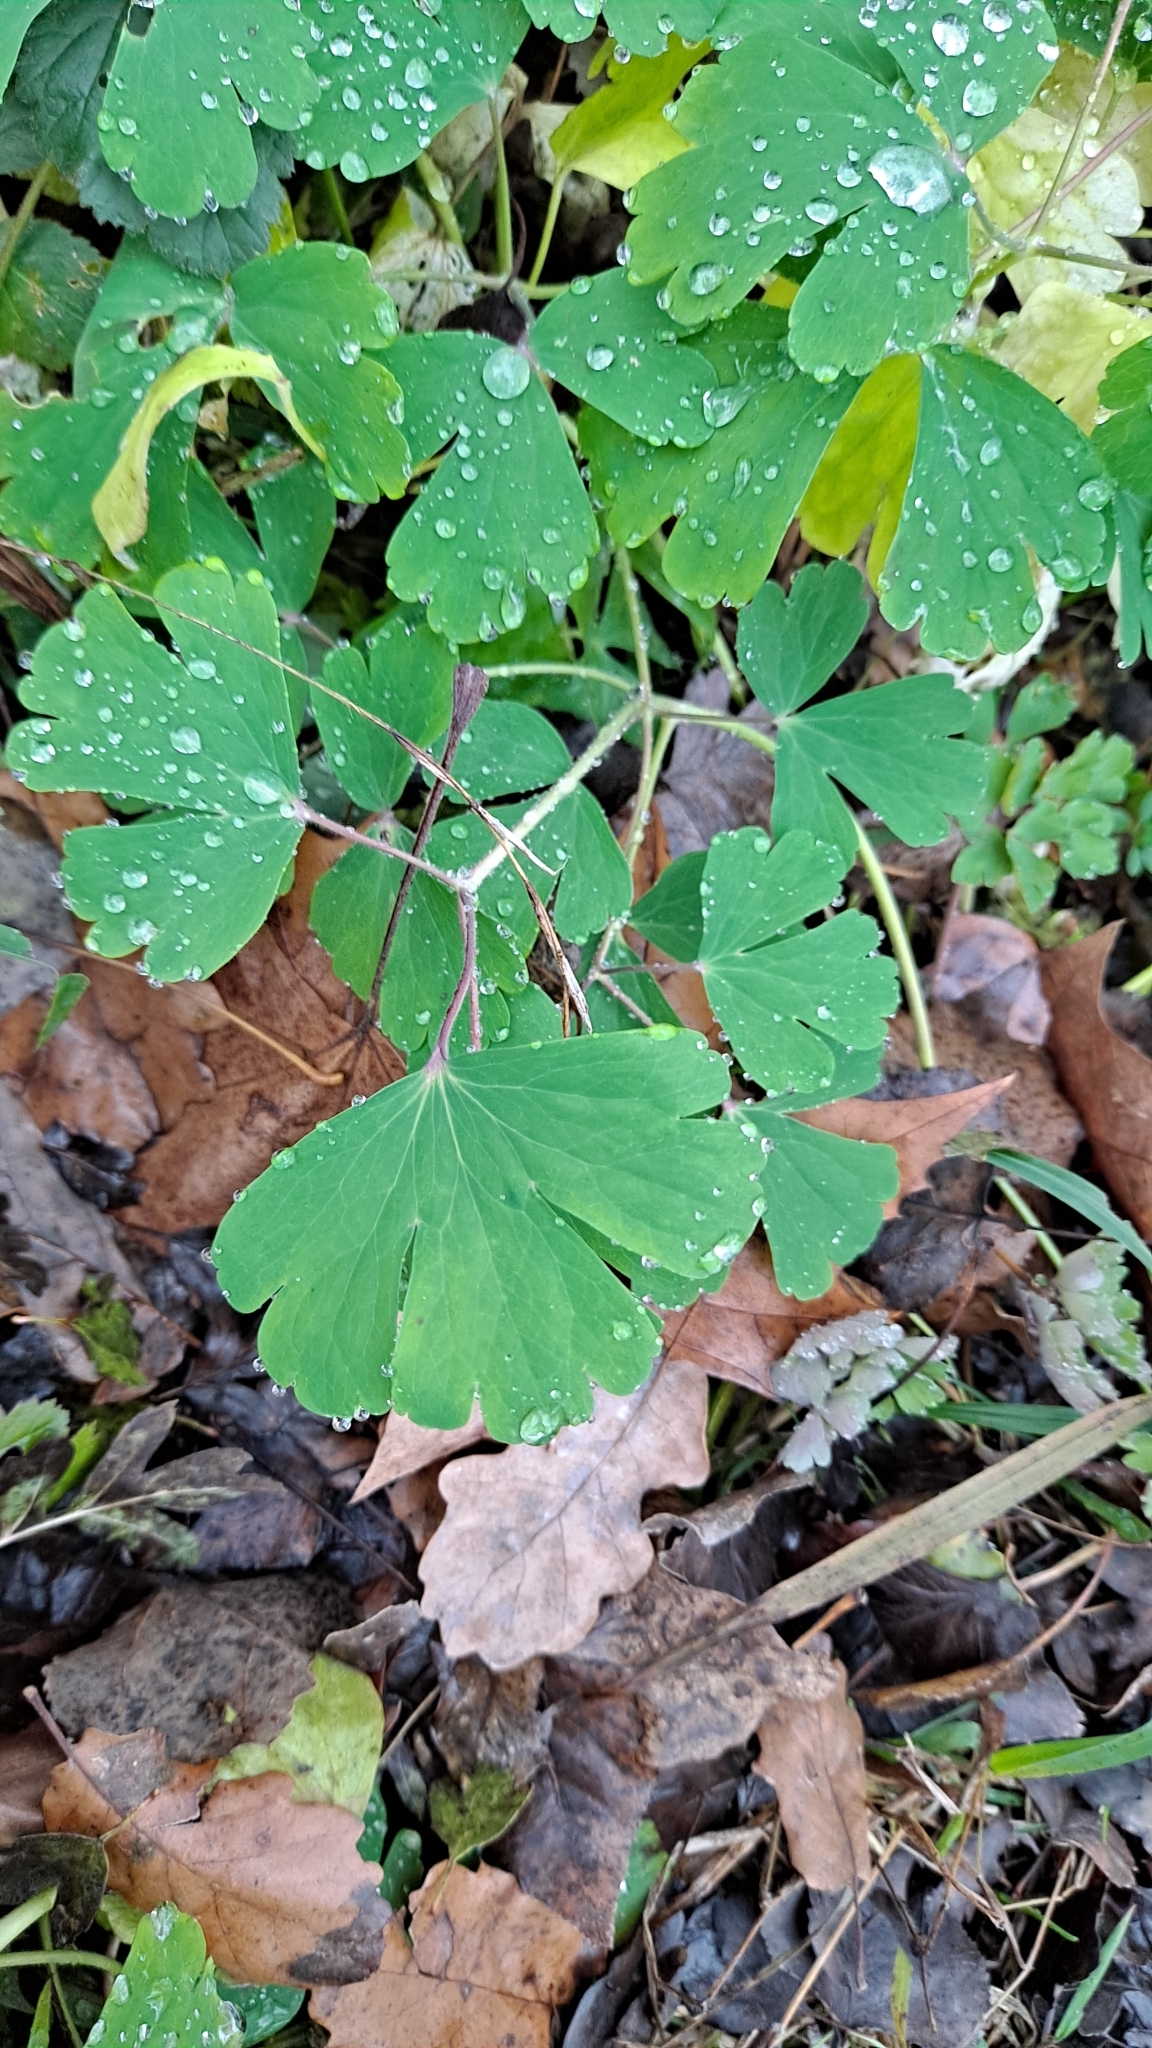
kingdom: Plantae
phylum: Tracheophyta
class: Magnoliopsida
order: Ranunculales
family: Ranunculaceae
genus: Aquilegia
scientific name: Aquilegia vulgaris
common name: Columbine
